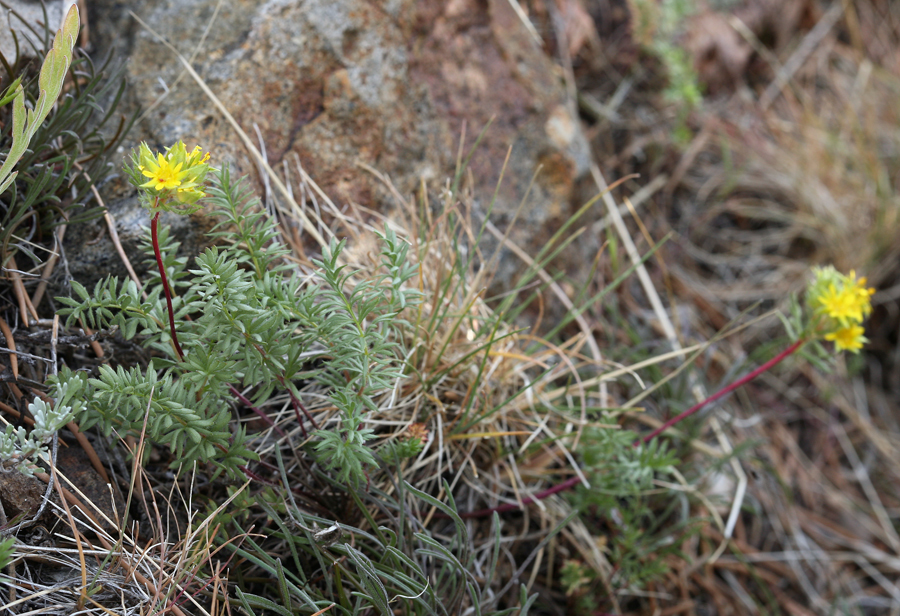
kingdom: Plantae
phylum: Tracheophyta
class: Magnoliopsida
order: Rosales
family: Rosaceae
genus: Potentilla
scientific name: Potentilla webberi
